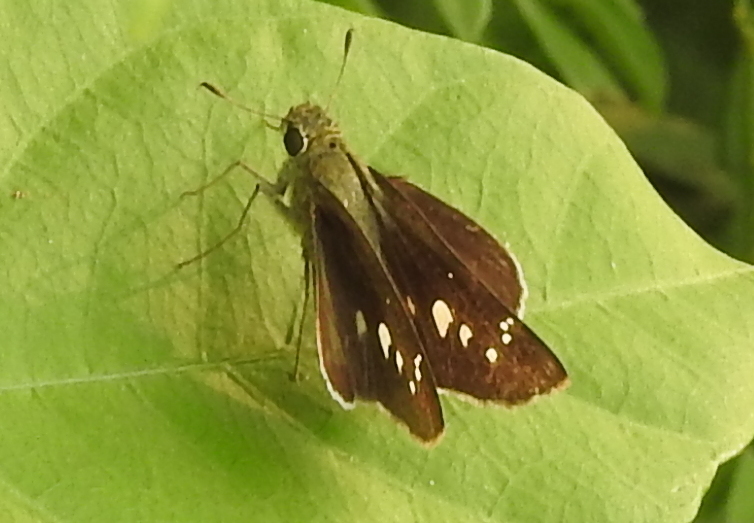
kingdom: Animalia
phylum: Arthropoda
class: Insecta
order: Lepidoptera
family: Hesperiidae
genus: Borbo
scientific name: Borbo cinnara
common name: Formosan swift
